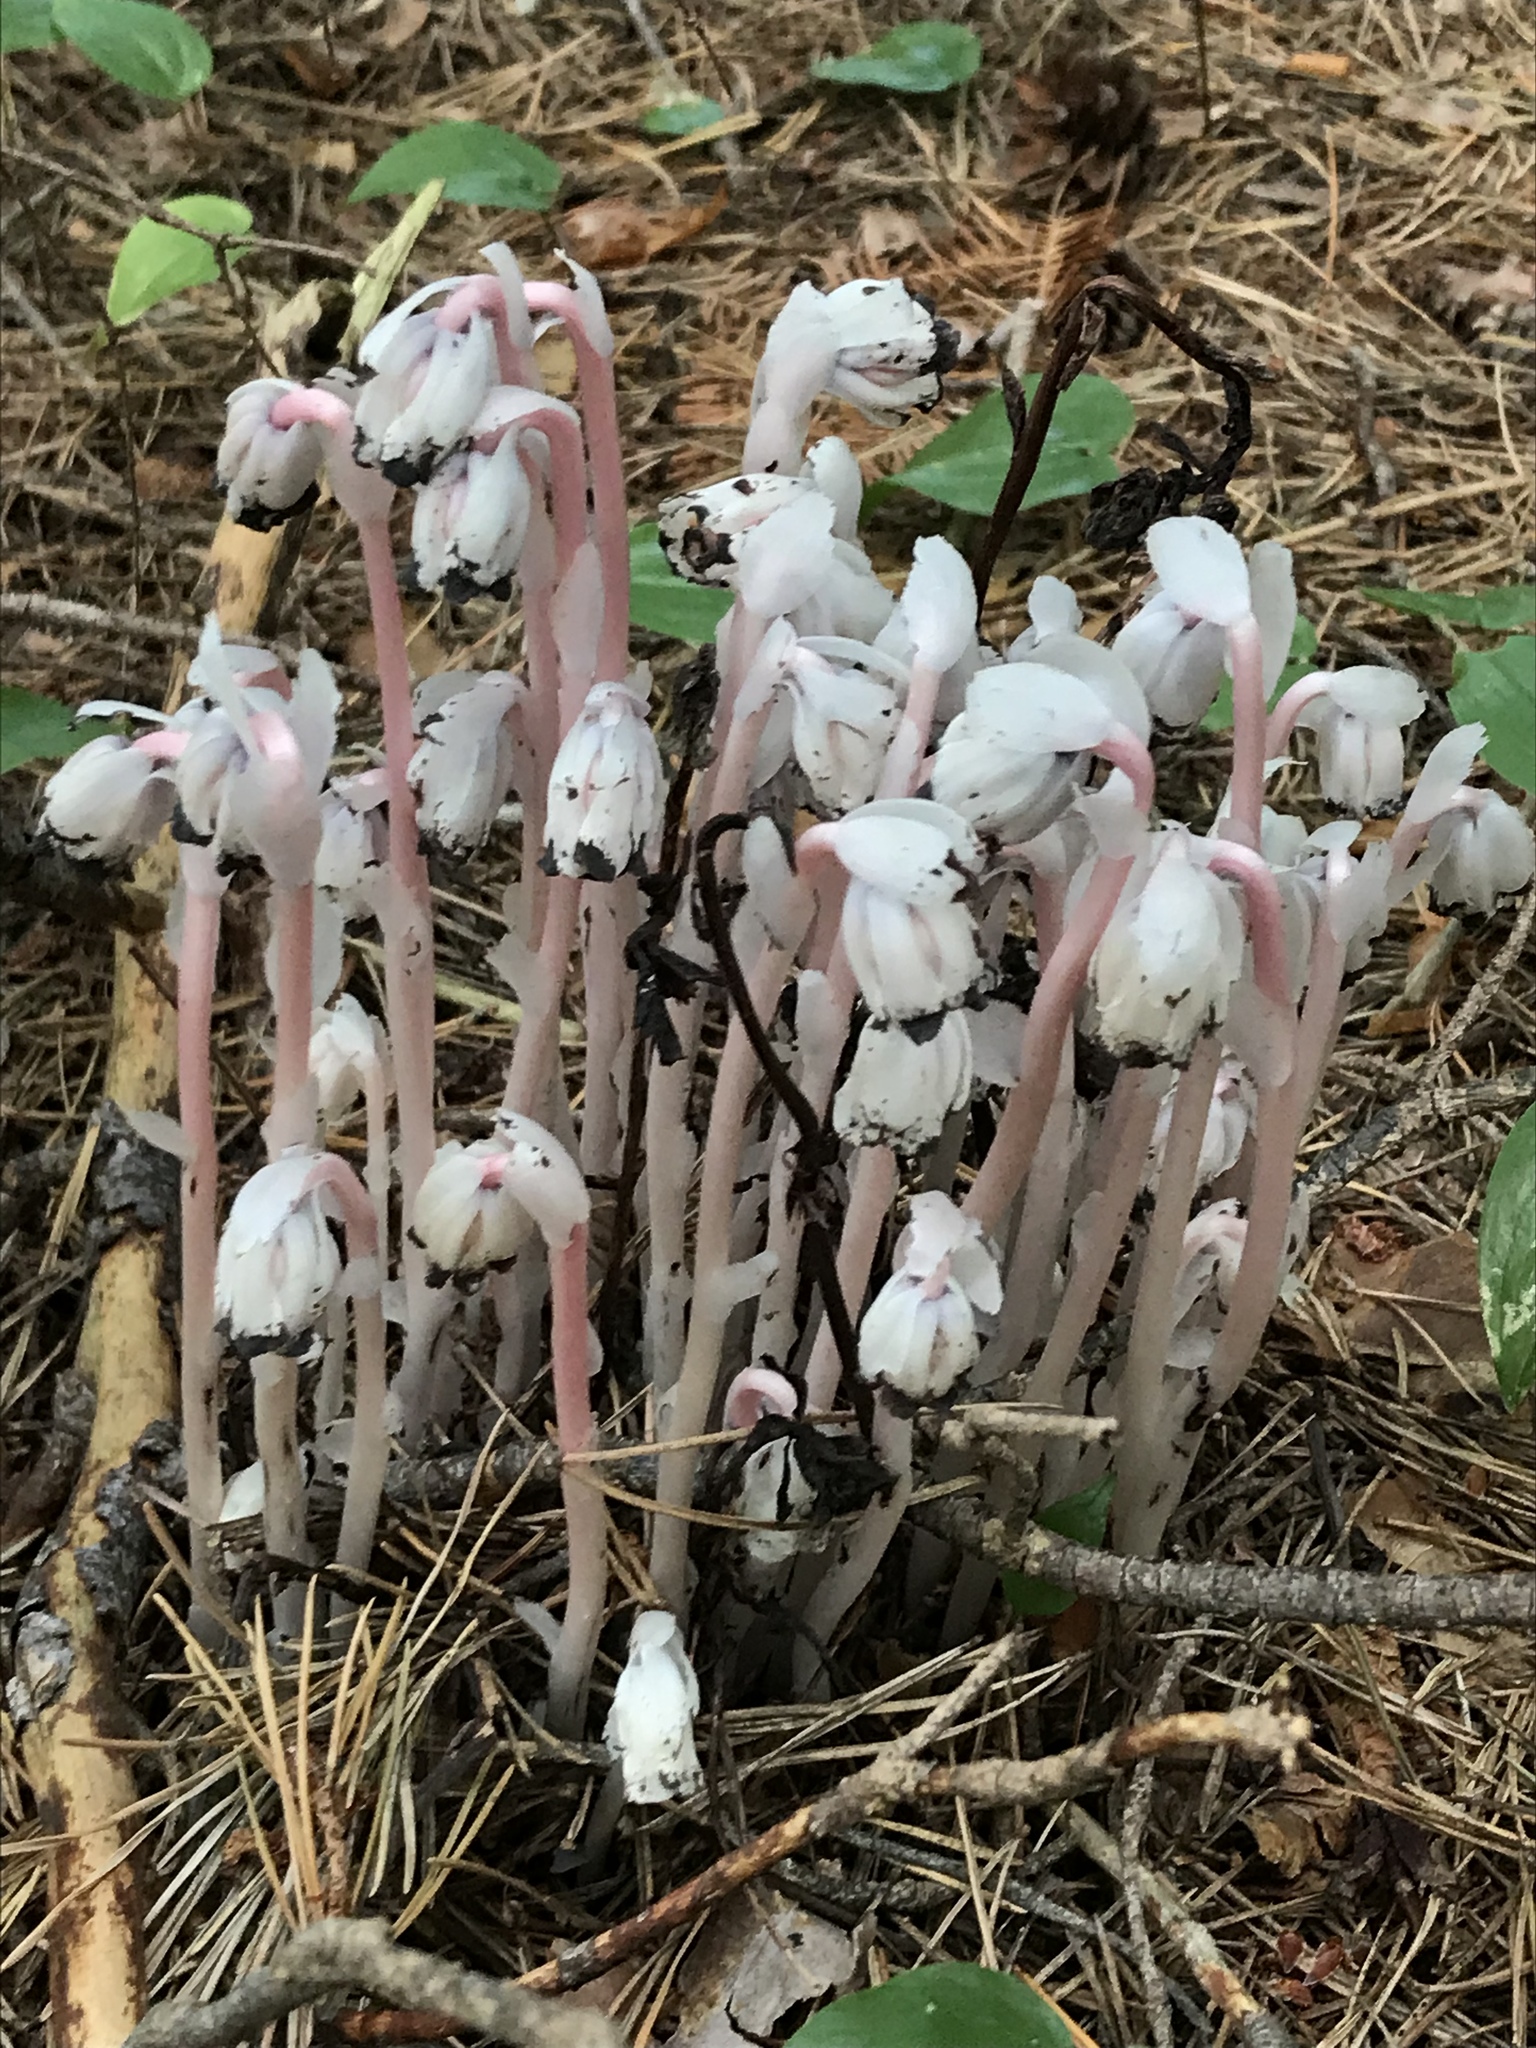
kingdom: Plantae
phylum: Tracheophyta
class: Magnoliopsida
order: Ericales
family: Ericaceae
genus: Monotropa
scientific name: Monotropa uniflora
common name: Convulsion root
